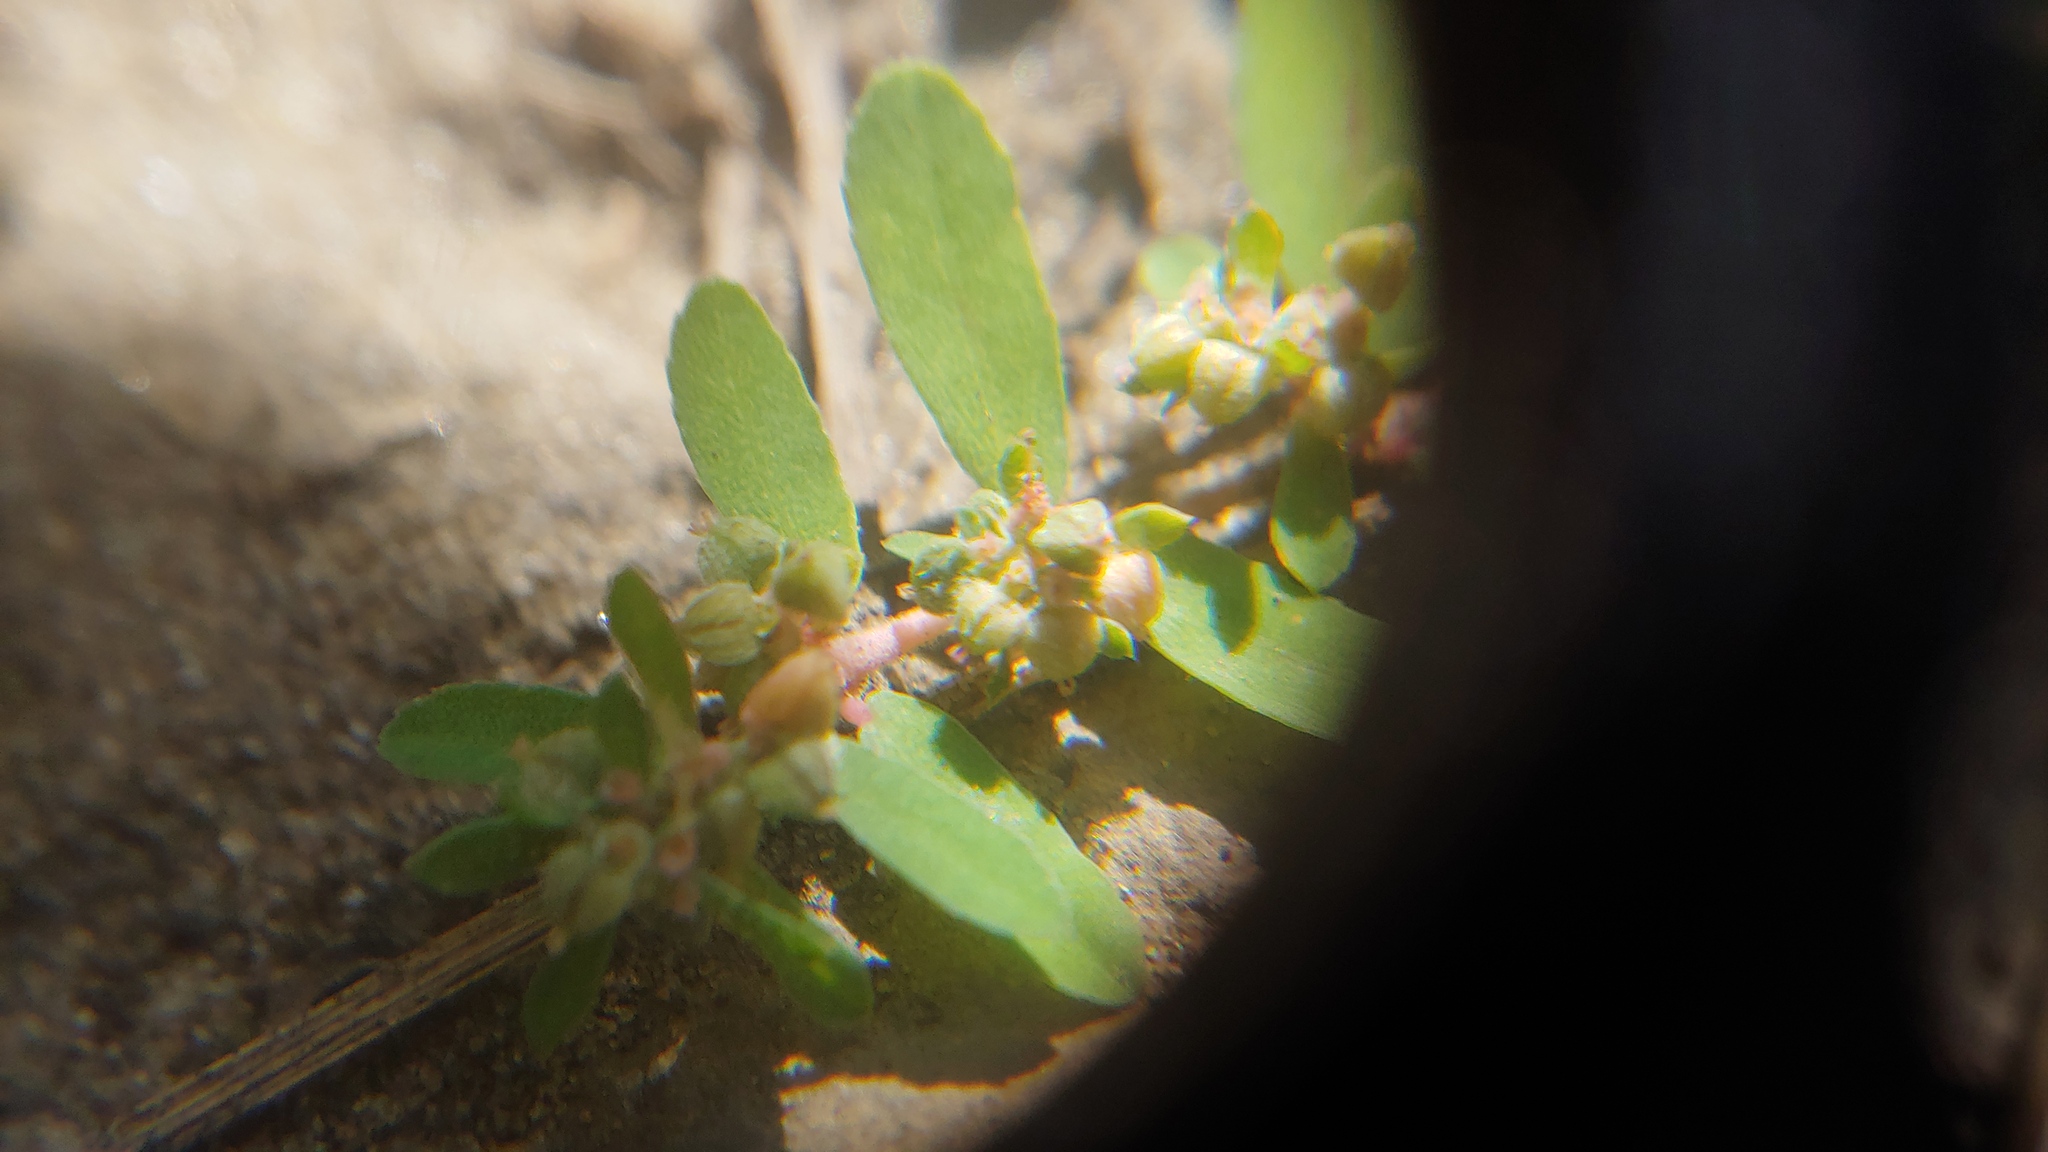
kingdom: Plantae
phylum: Tracheophyta
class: Magnoliopsida
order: Malpighiales
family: Euphorbiaceae
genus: Euphorbia
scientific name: Euphorbia maculata
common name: Spotted spurge
